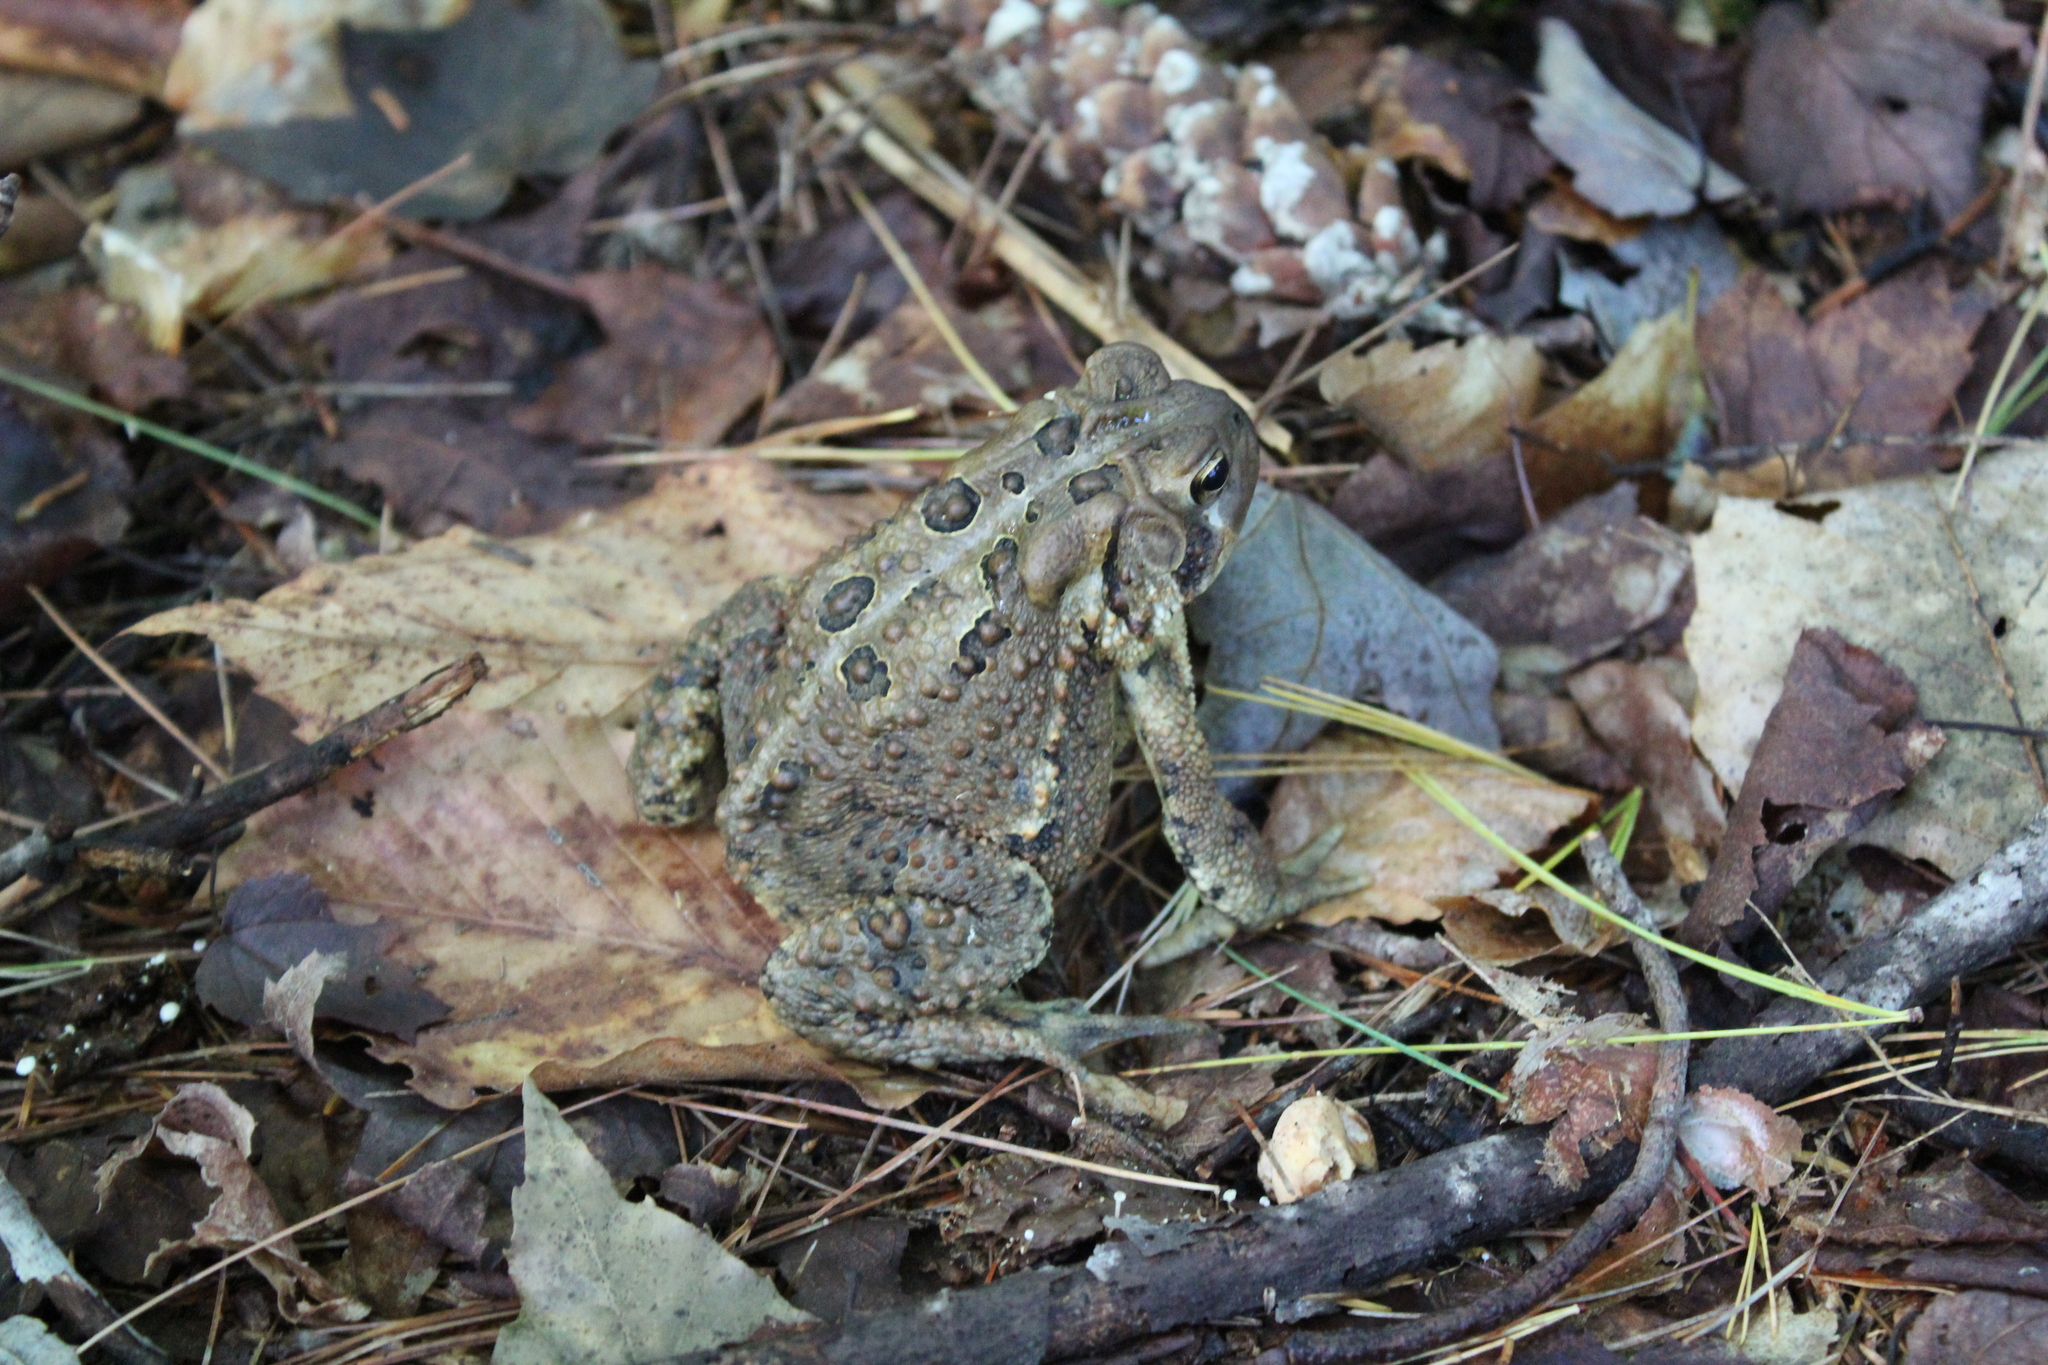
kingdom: Animalia
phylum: Chordata
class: Amphibia
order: Anura
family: Bufonidae
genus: Anaxyrus
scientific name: Anaxyrus americanus
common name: American toad
